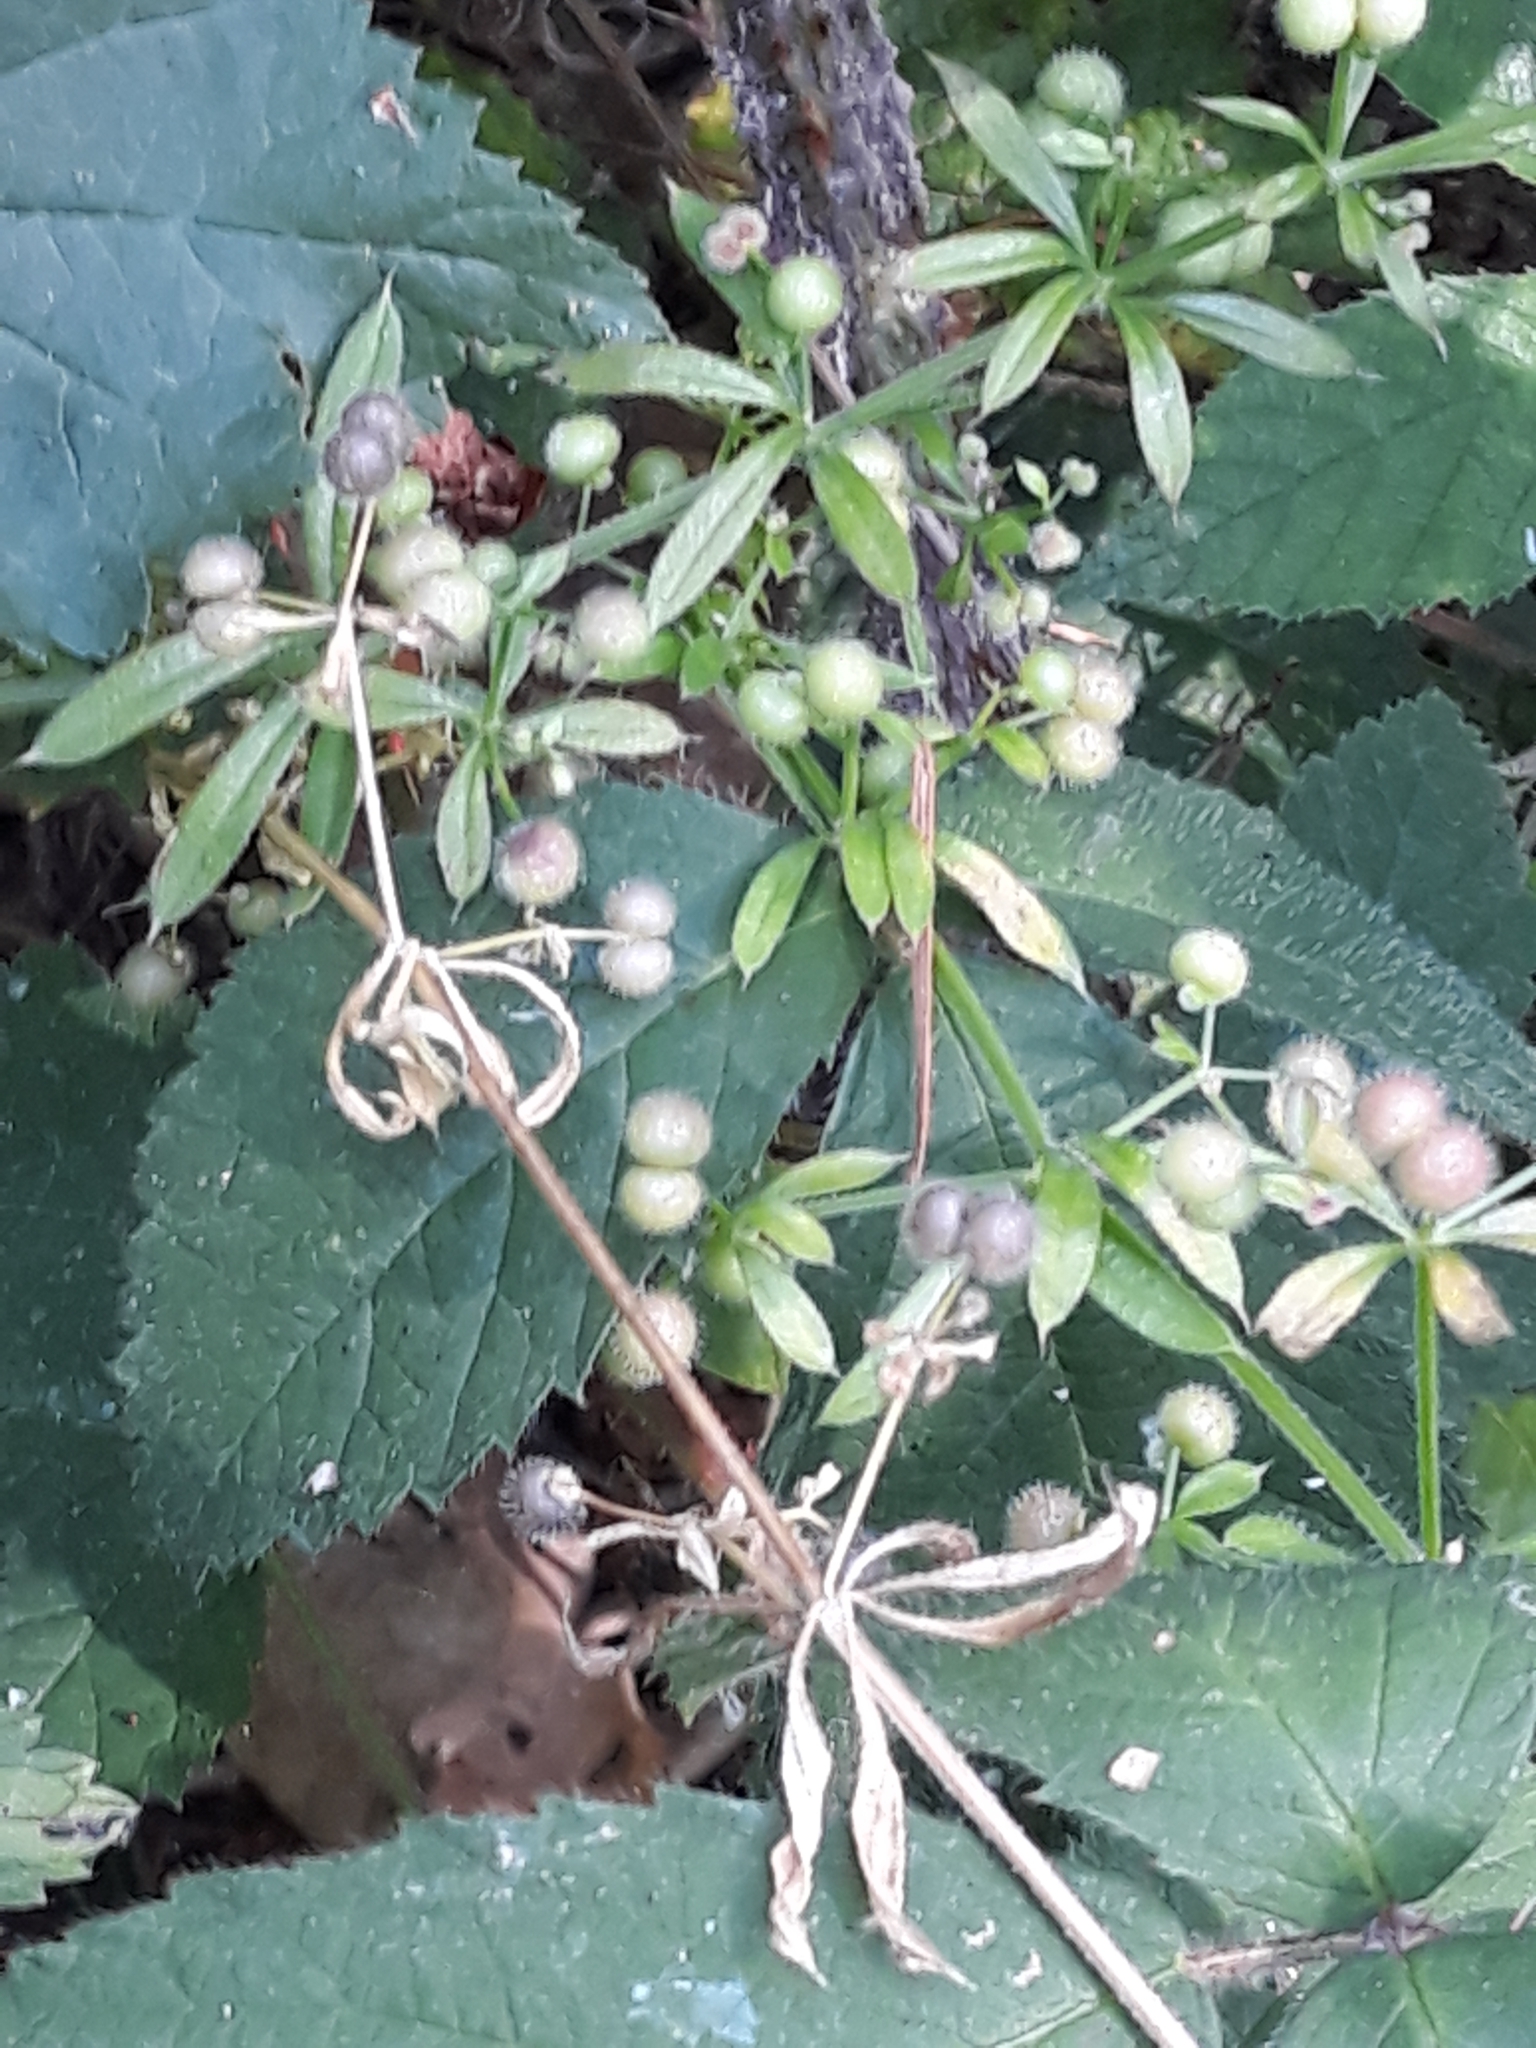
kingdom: Plantae
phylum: Tracheophyta
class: Magnoliopsida
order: Gentianales
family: Rubiaceae
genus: Galium
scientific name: Galium aparine
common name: Cleavers
